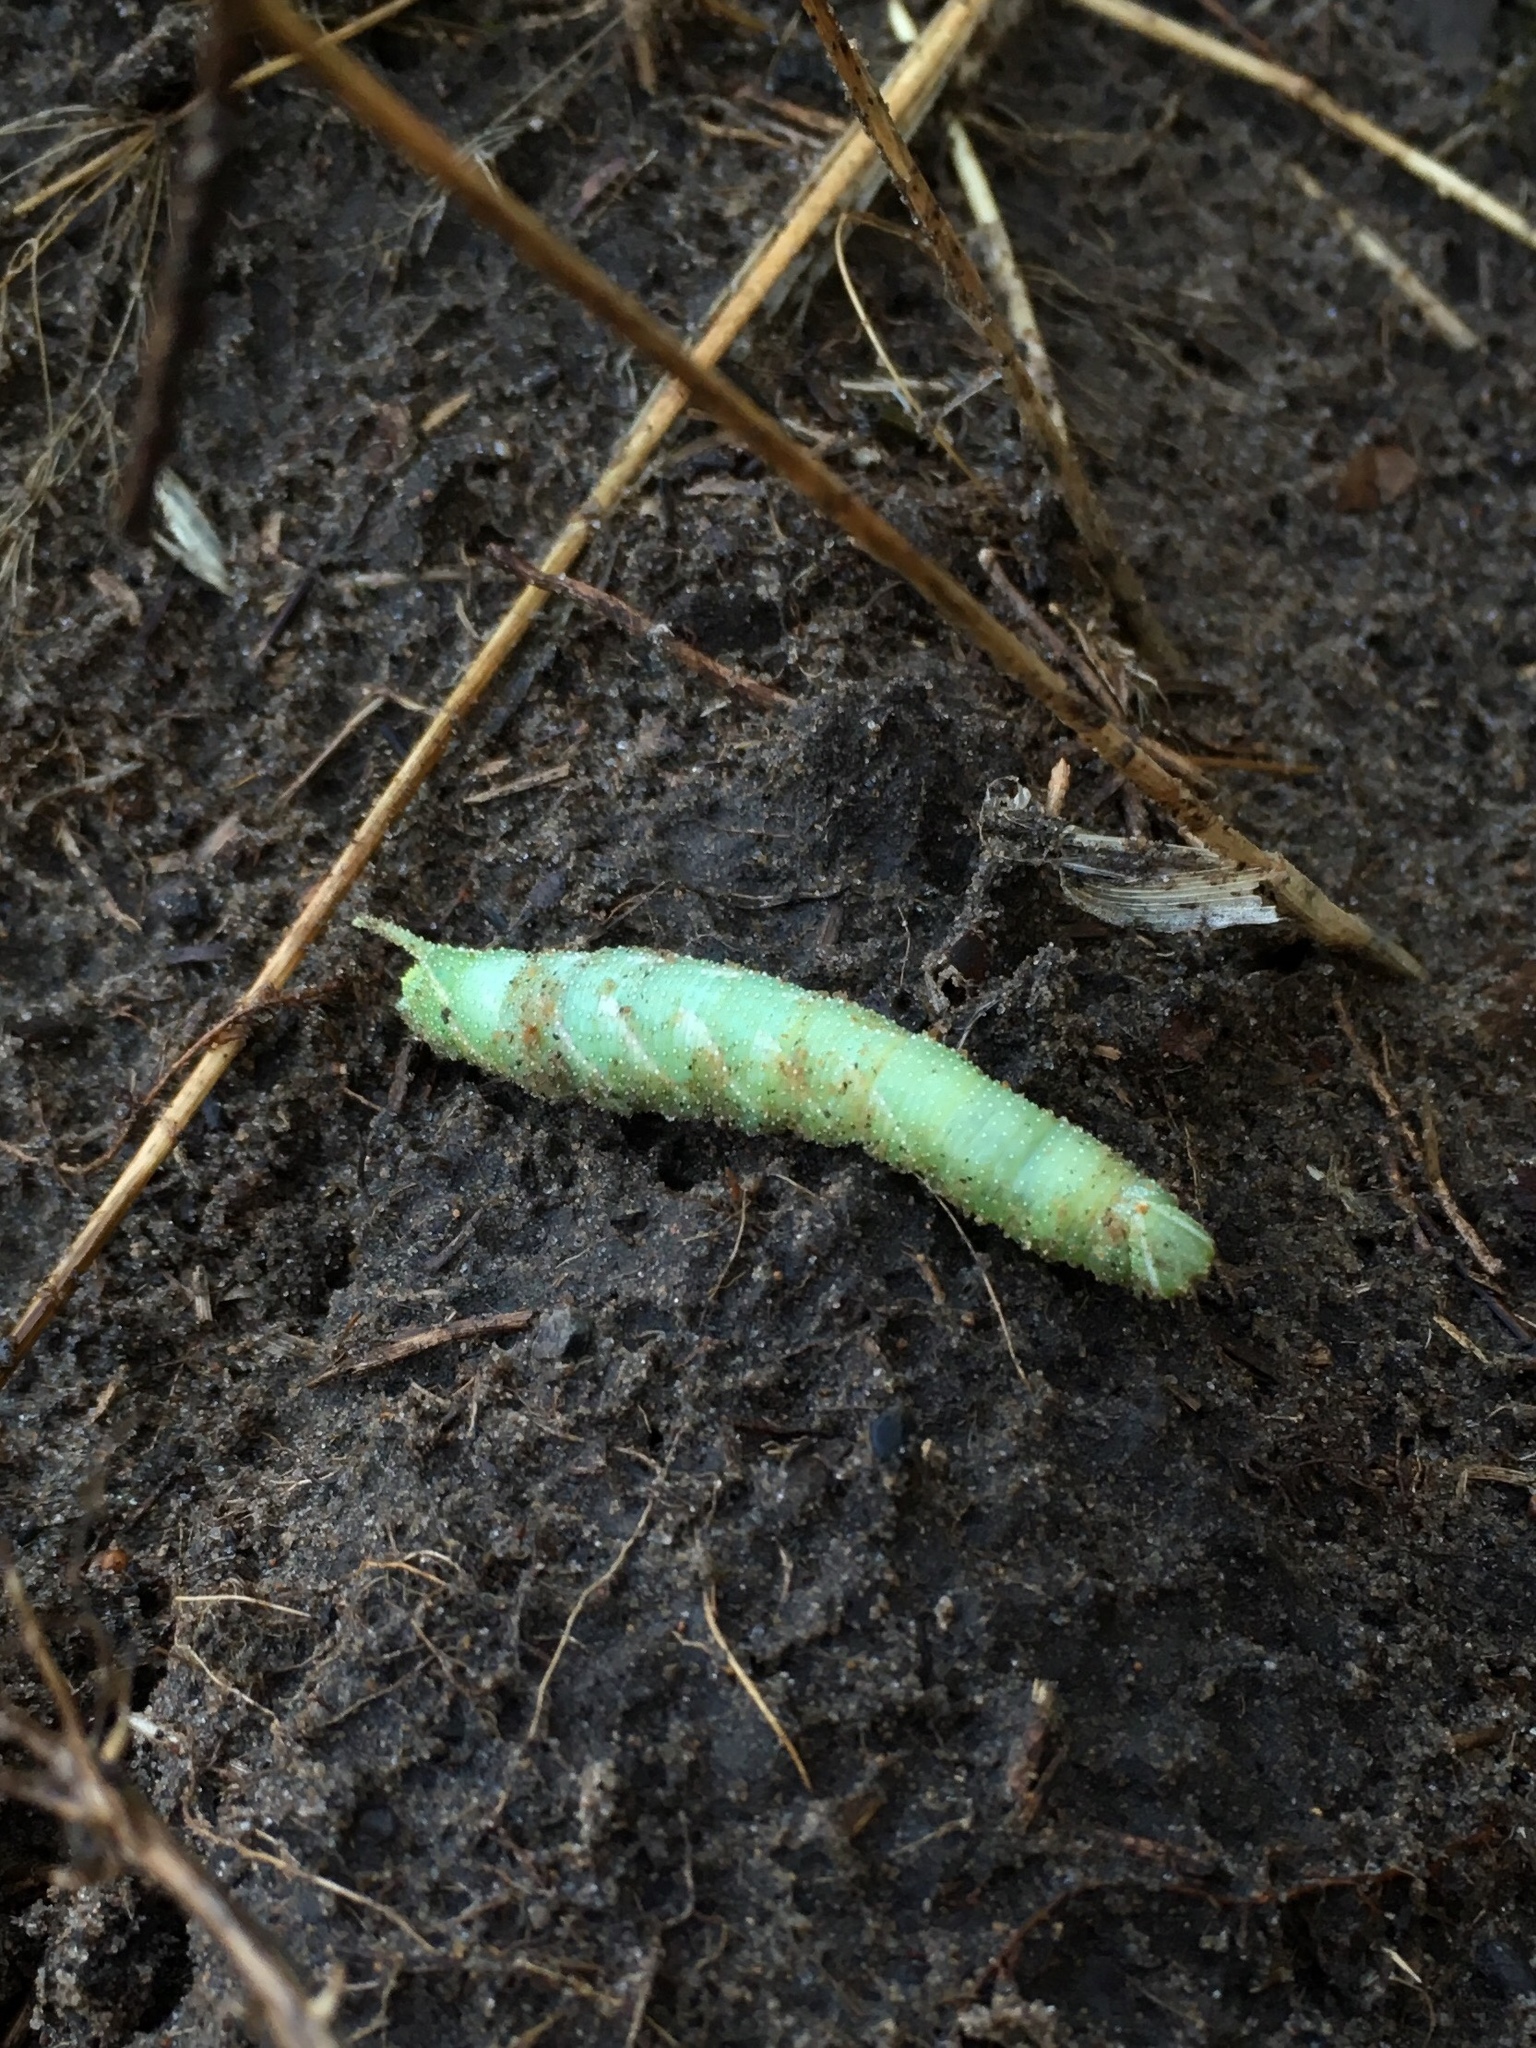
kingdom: Animalia
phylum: Arthropoda
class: Insecta
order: Lepidoptera
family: Sphingidae
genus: Amorpha
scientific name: Amorpha juglandis
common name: Walnut sphinx
